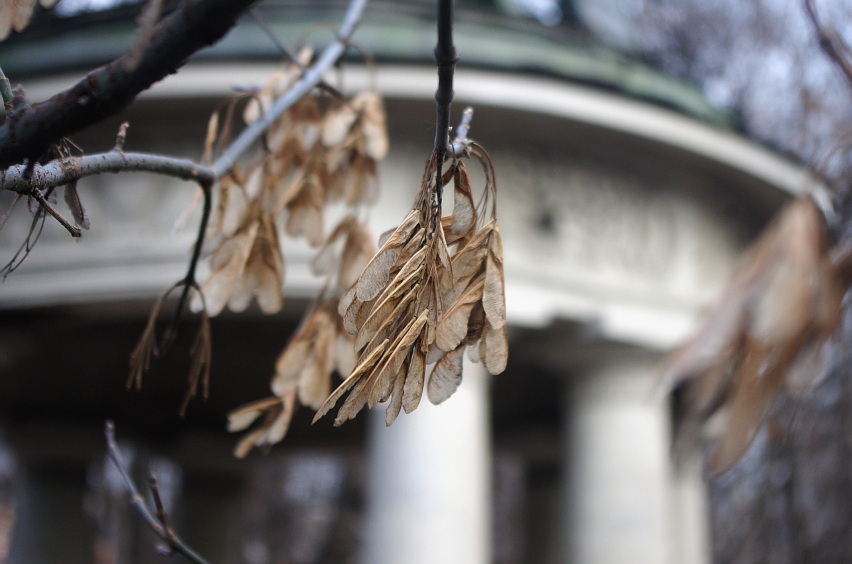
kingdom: Plantae
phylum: Tracheophyta
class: Magnoliopsida
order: Sapindales
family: Sapindaceae
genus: Acer
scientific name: Acer negundo
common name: Ashleaf maple
